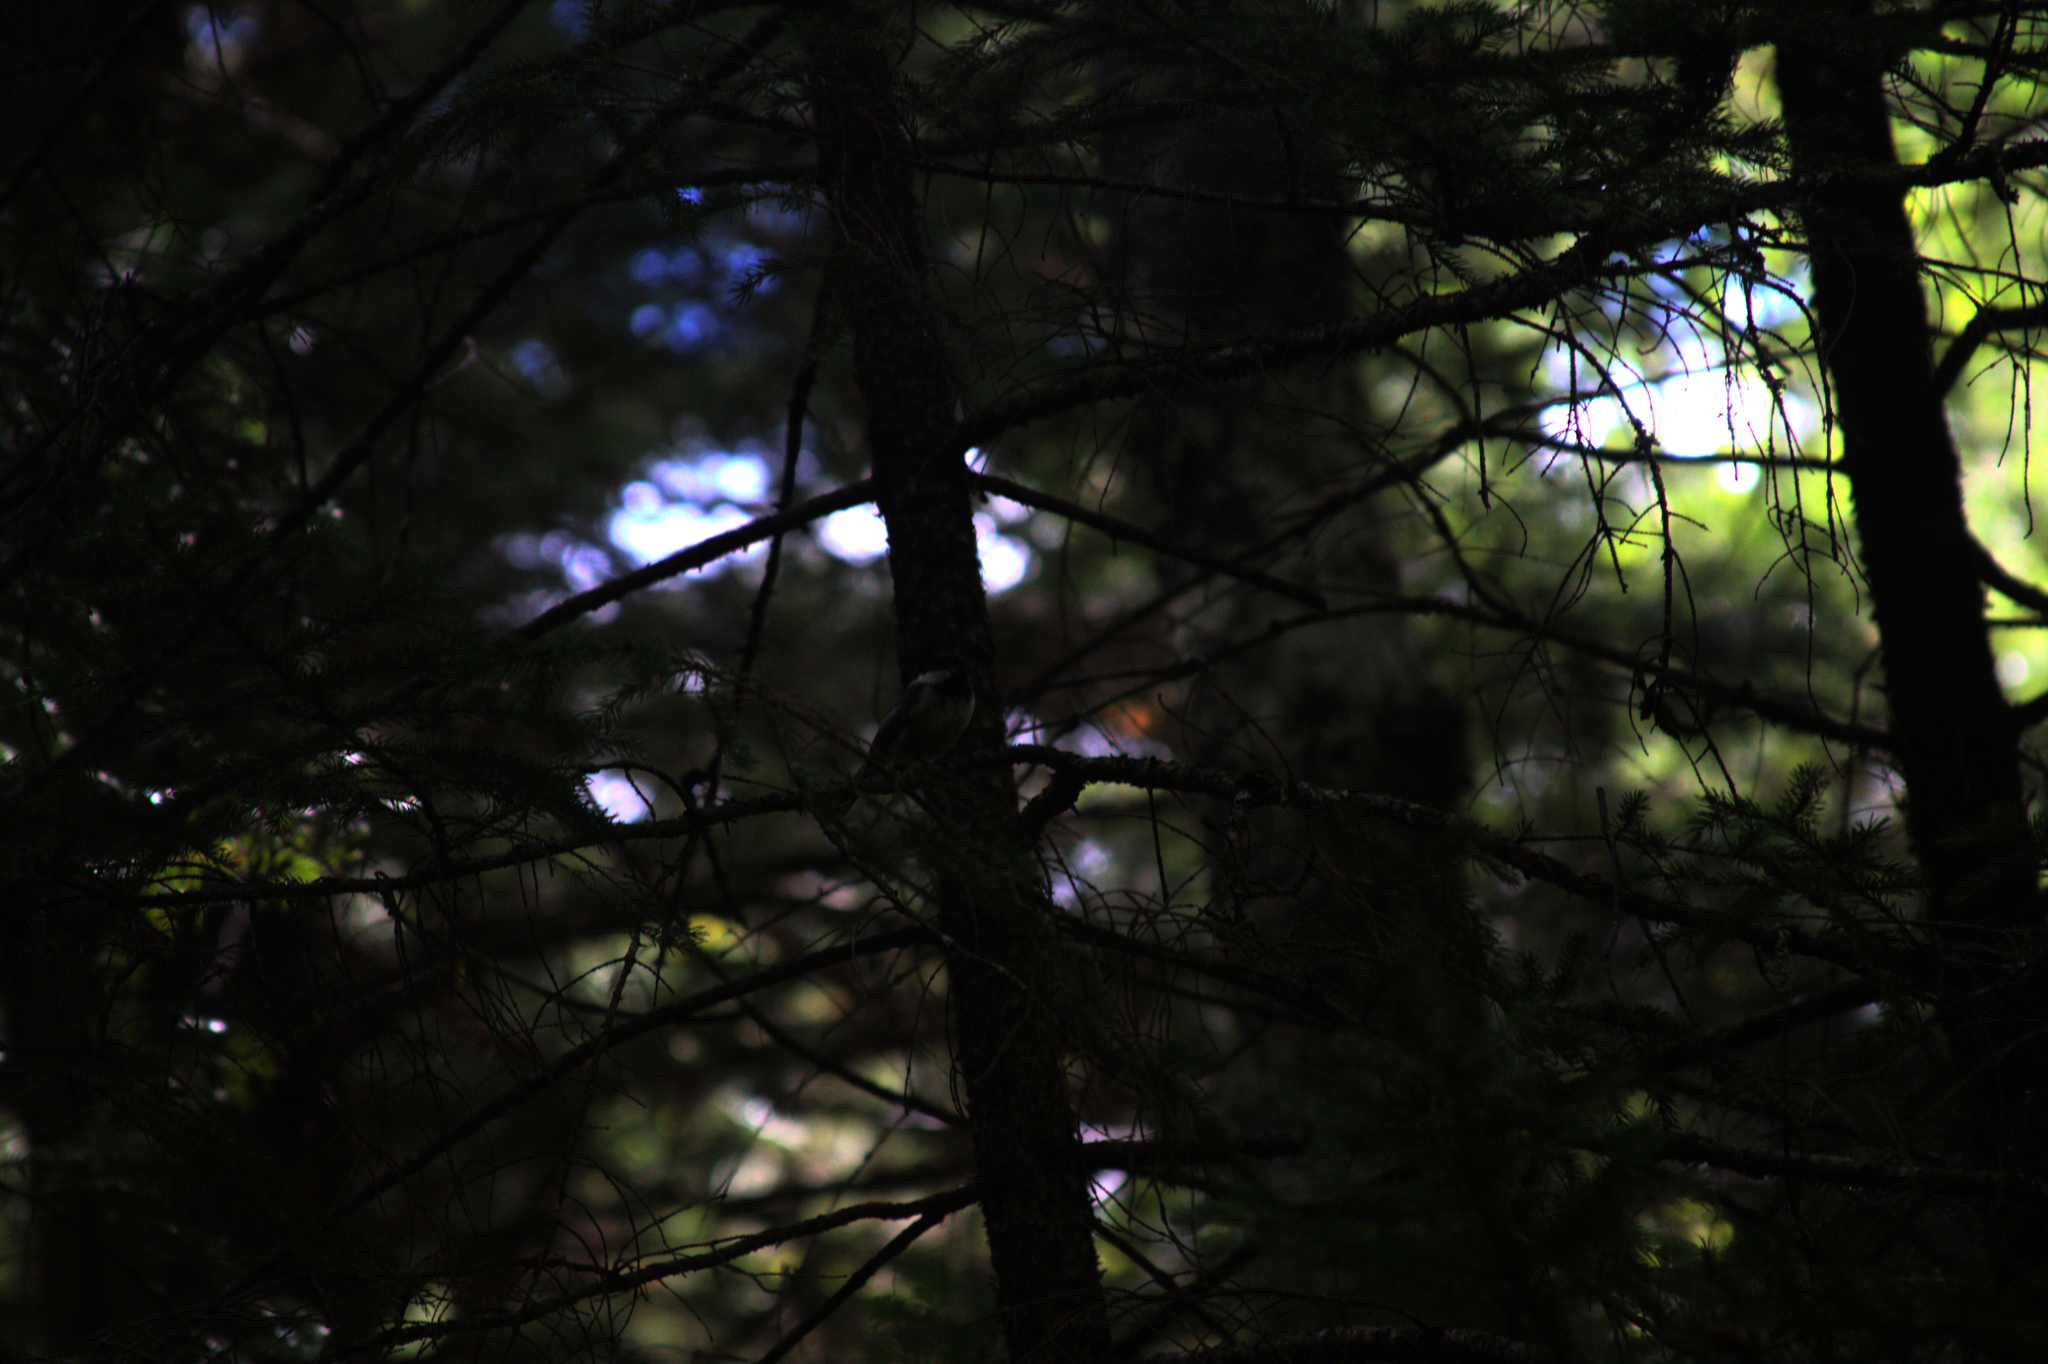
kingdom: Animalia
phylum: Chordata
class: Aves
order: Passeriformes
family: Paridae
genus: Poecile
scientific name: Poecile atricapillus
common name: Black-capped chickadee
